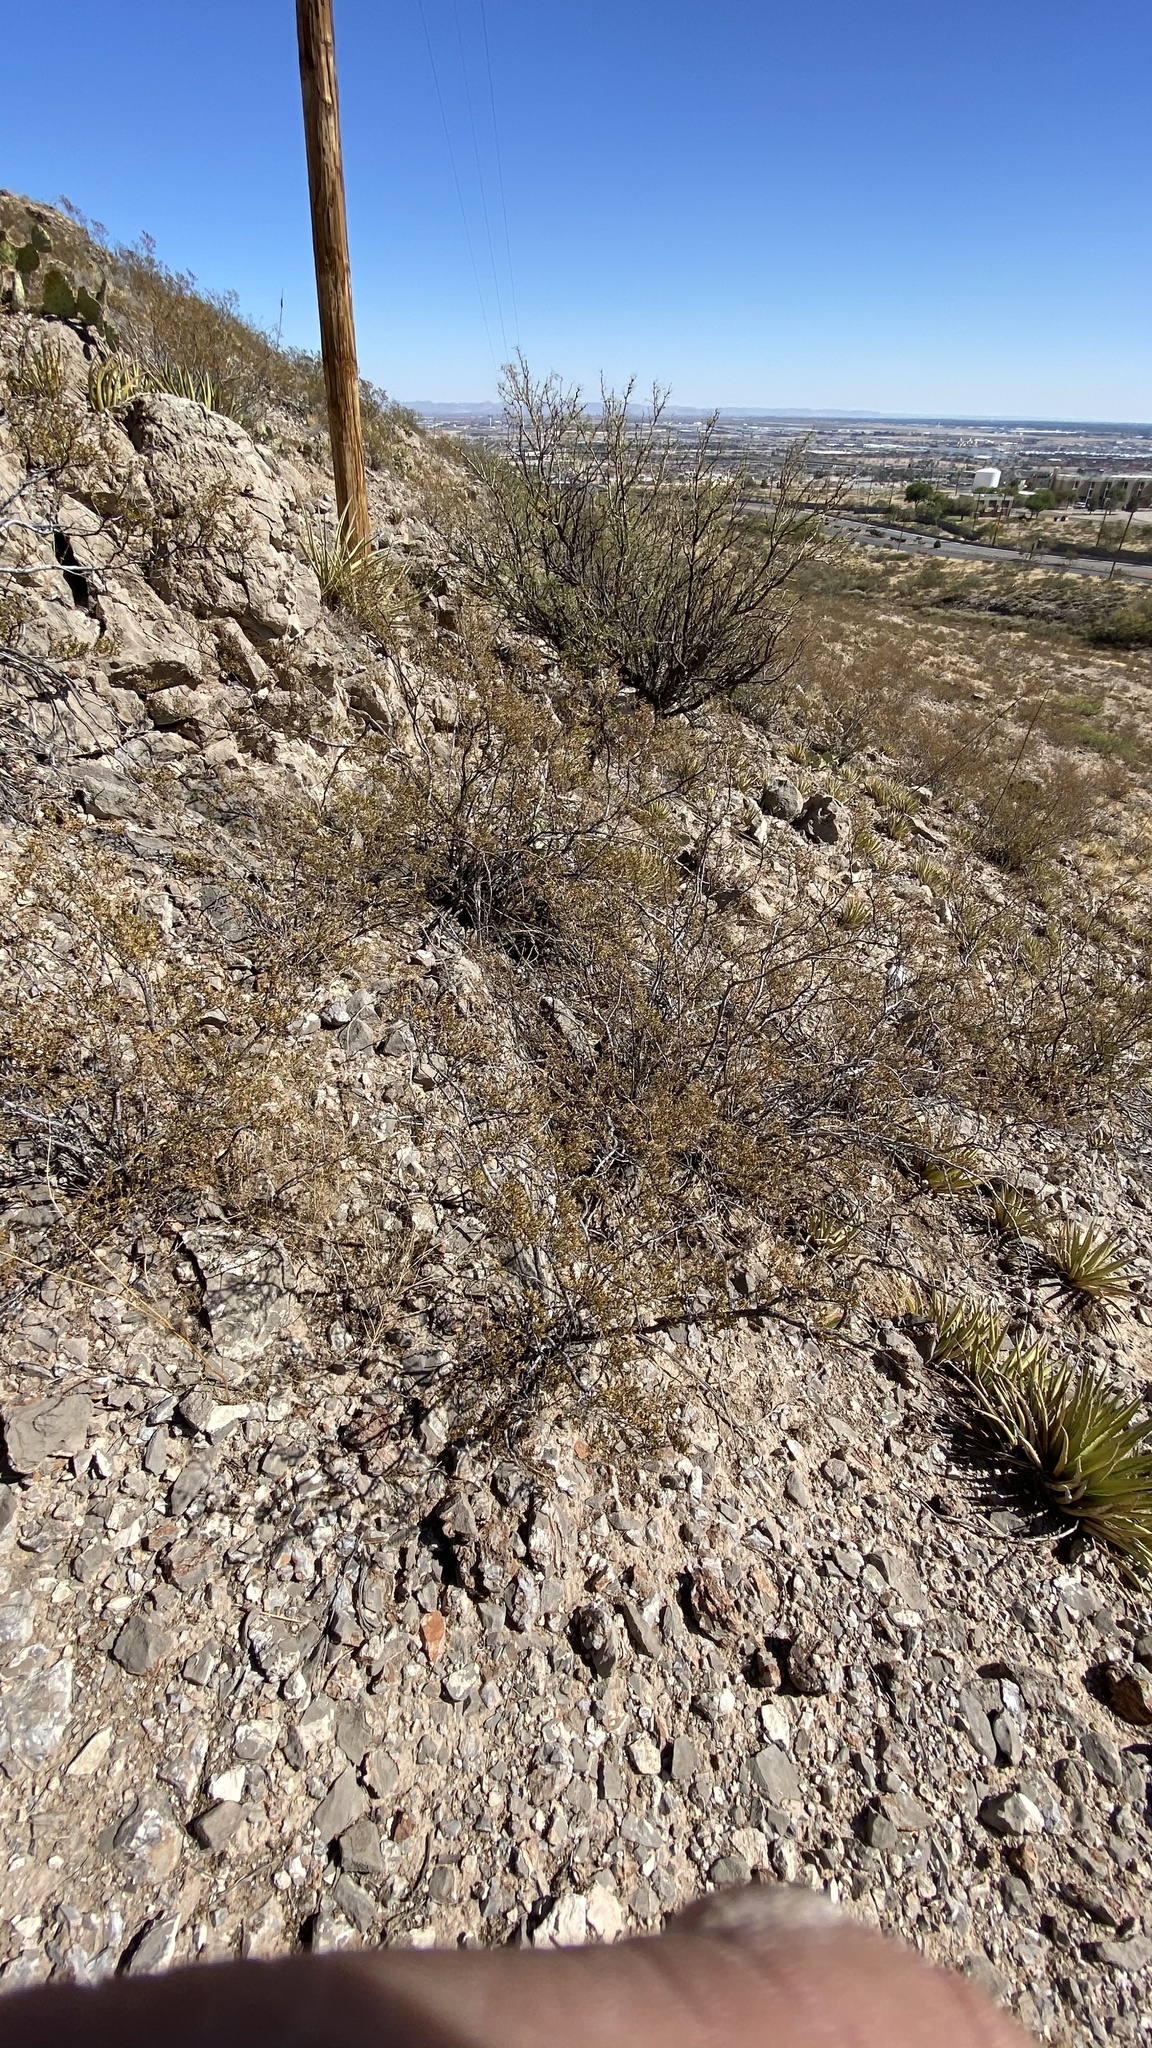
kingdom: Plantae
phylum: Tracheophyta
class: Magnoliopsida
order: Zygophyllales
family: Zygophyllaceae
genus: Larrea
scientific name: Larrea tridentata
